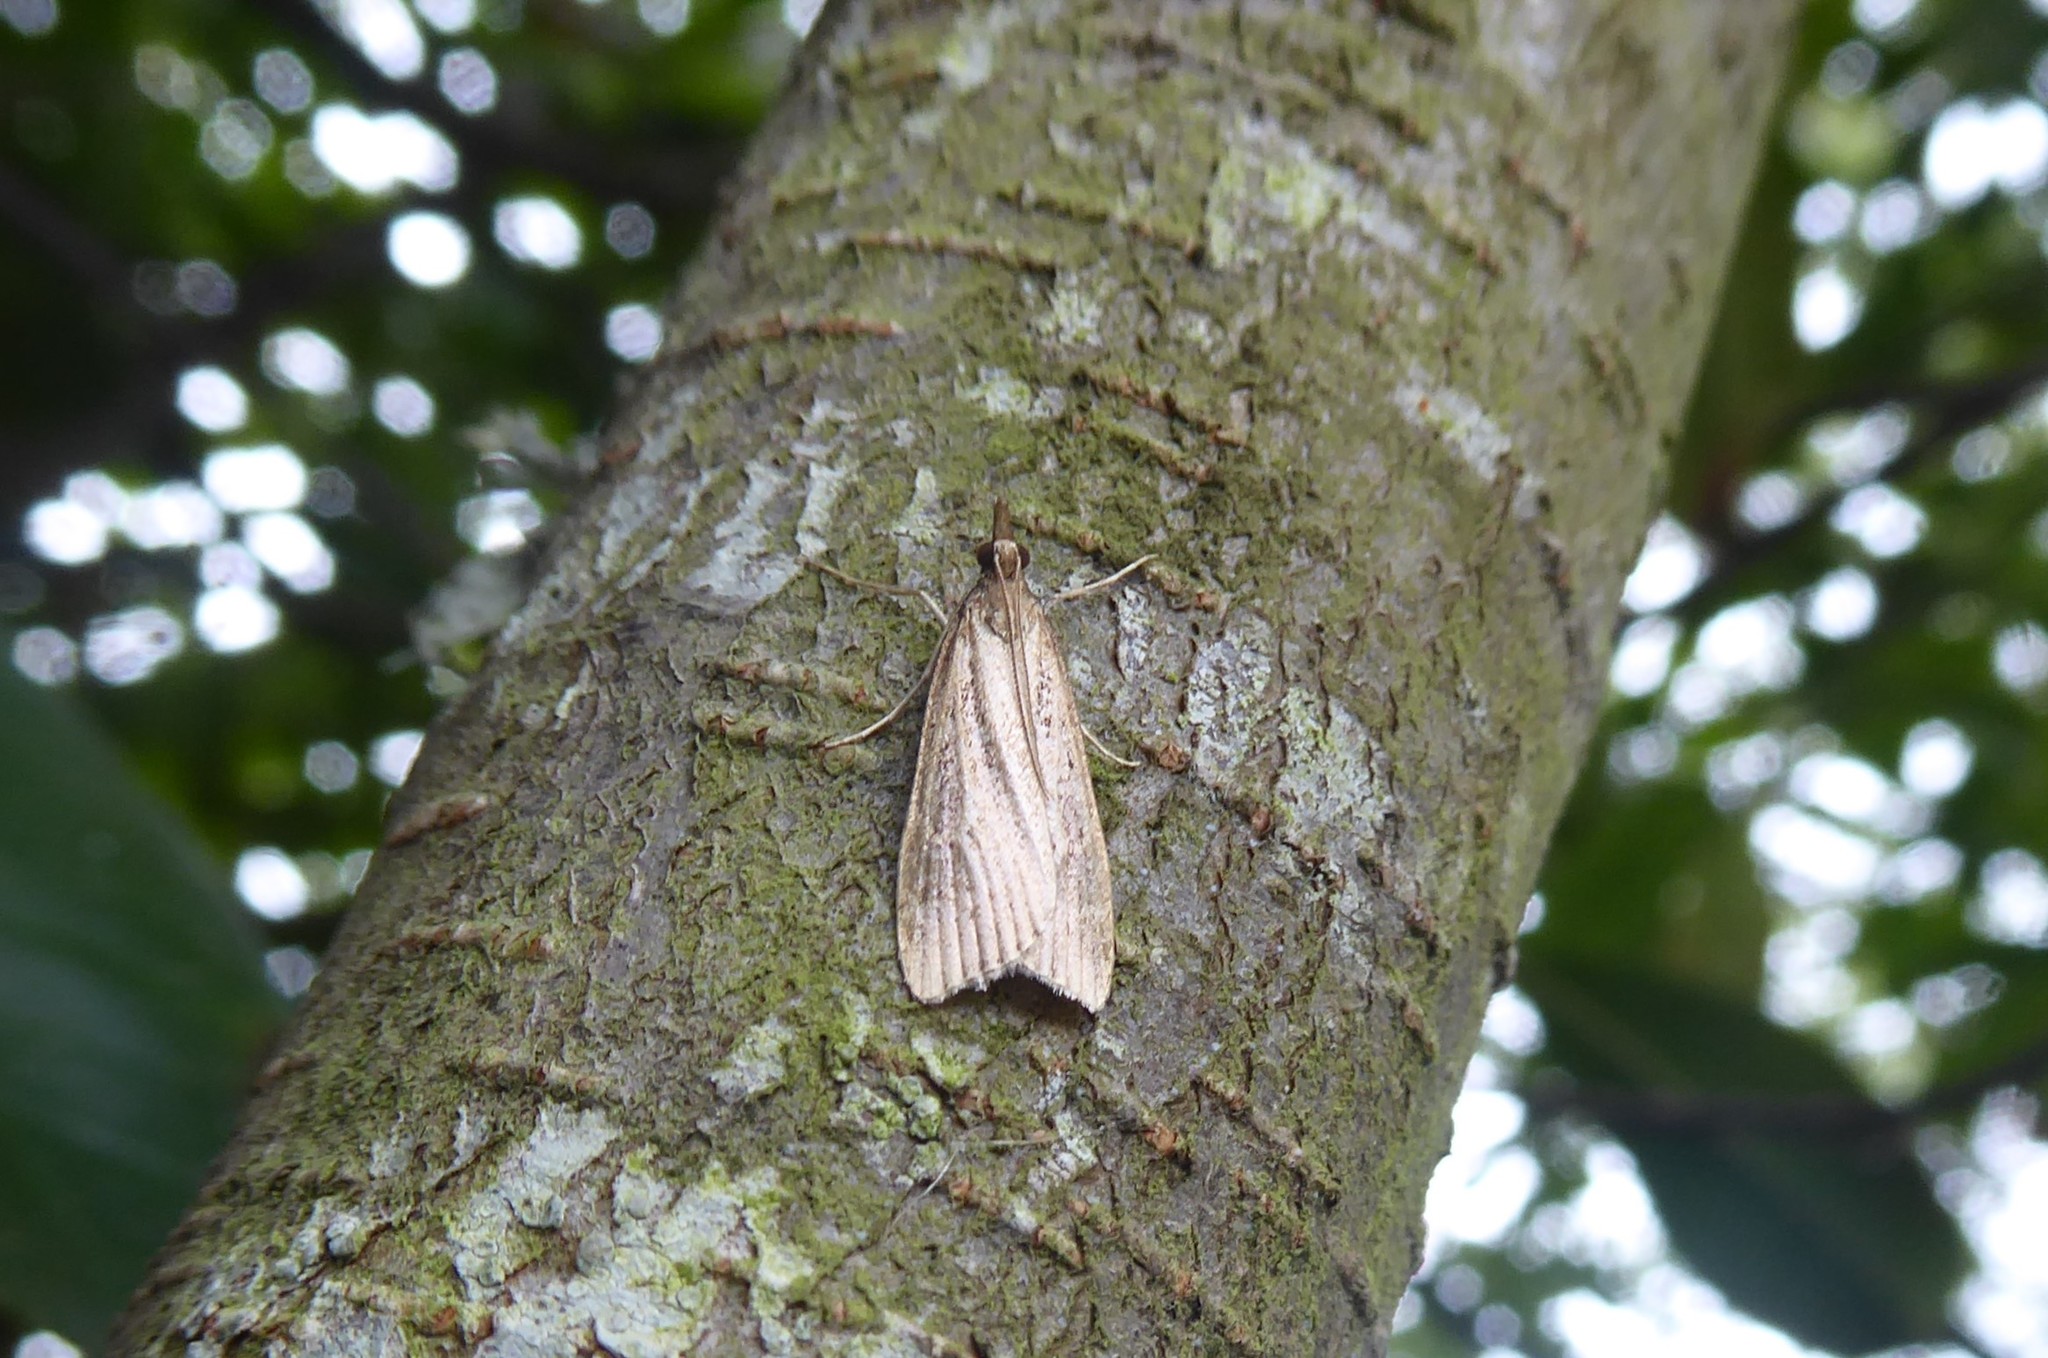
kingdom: Animalia
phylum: Arthropoda
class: Insecta
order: Lepidoptera
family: Crambidae
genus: Eudonia
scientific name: Eudonia octophora
